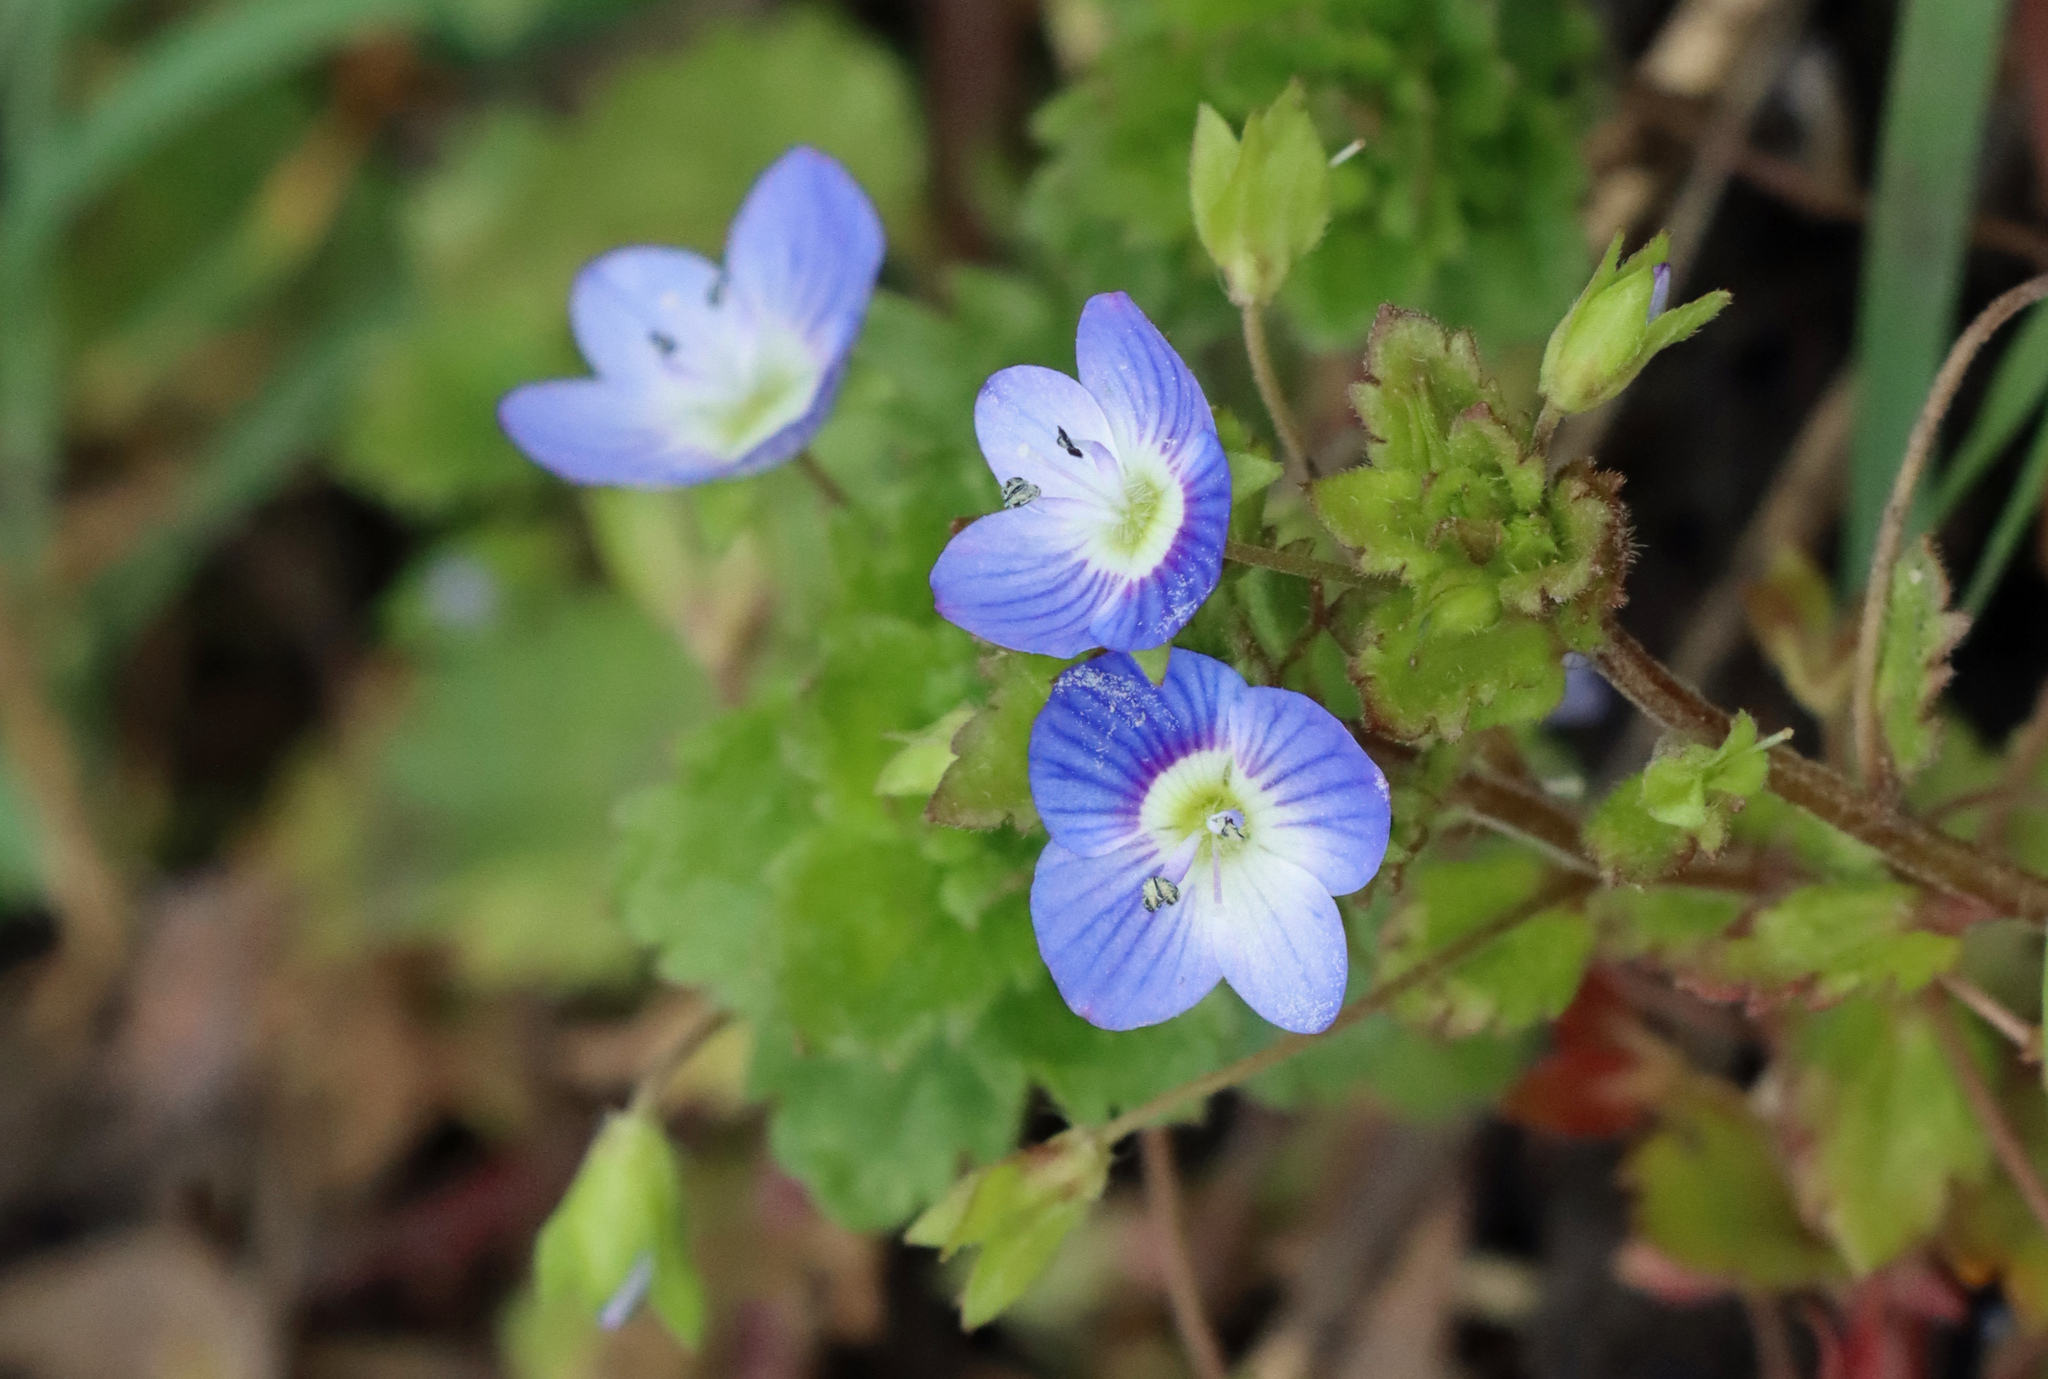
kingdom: Plantae
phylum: Tracheophyta
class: Magnoliopsida
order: Lamiales
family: Plantaginaceae
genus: Veronica
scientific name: Veronica persica
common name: Common field-speedwell
